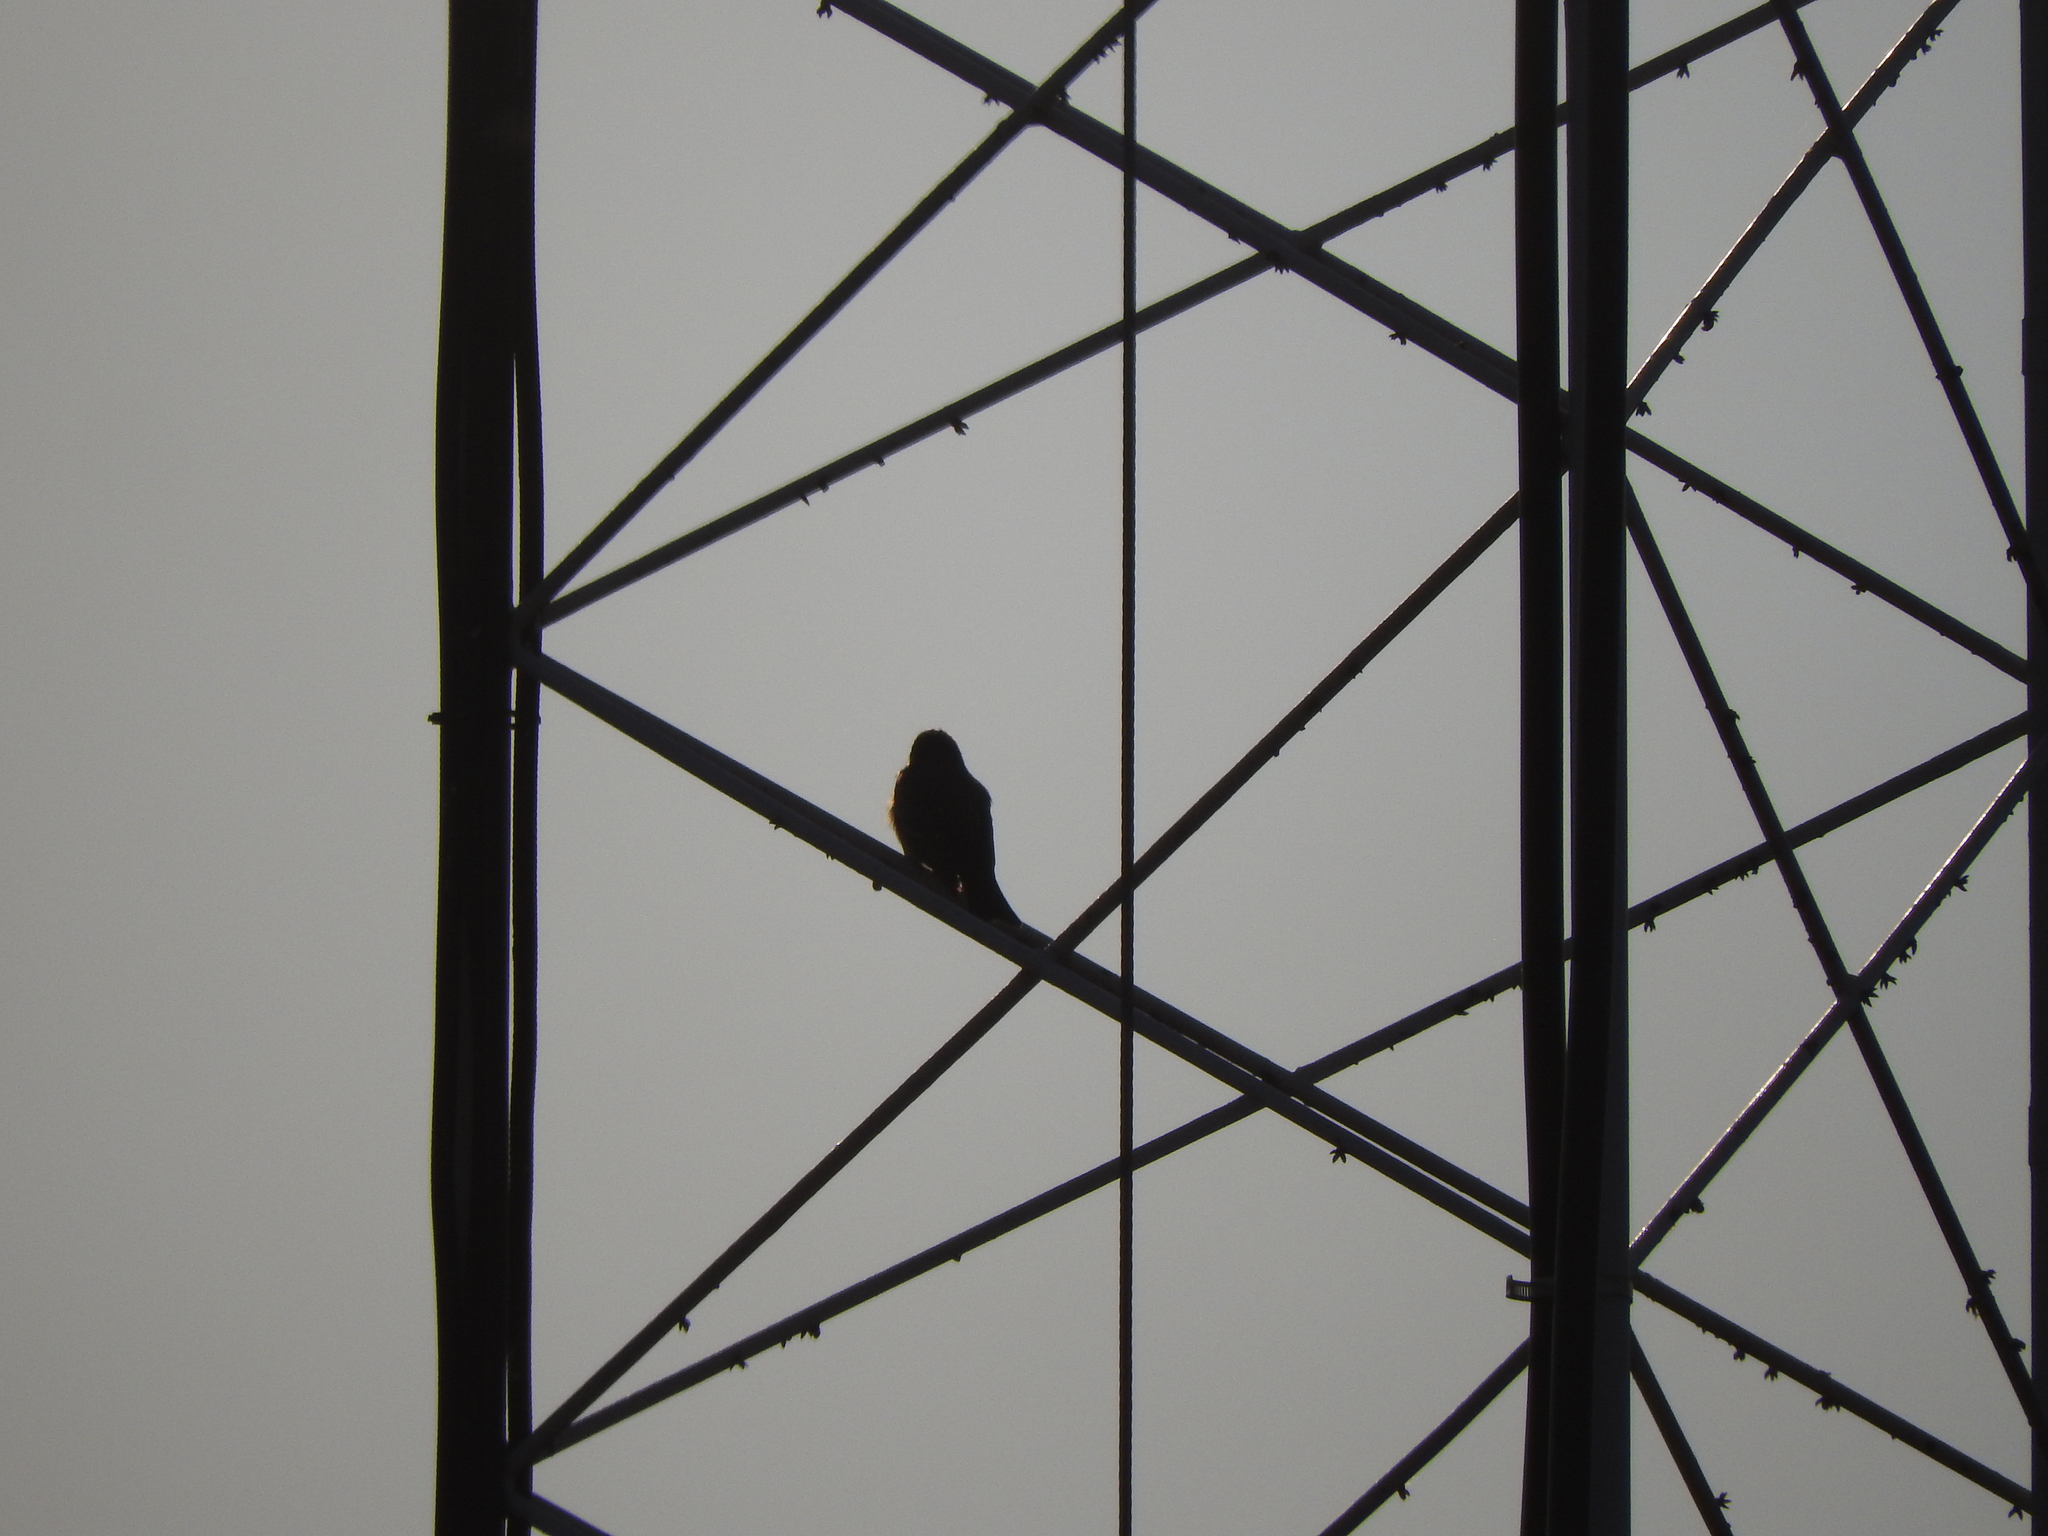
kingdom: Animalia
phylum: Chordata
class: Aves
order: Passeriformes
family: Tyrannidae
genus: Tyrannus
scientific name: Tyrannus vociferans
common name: Cassin's kingbird
